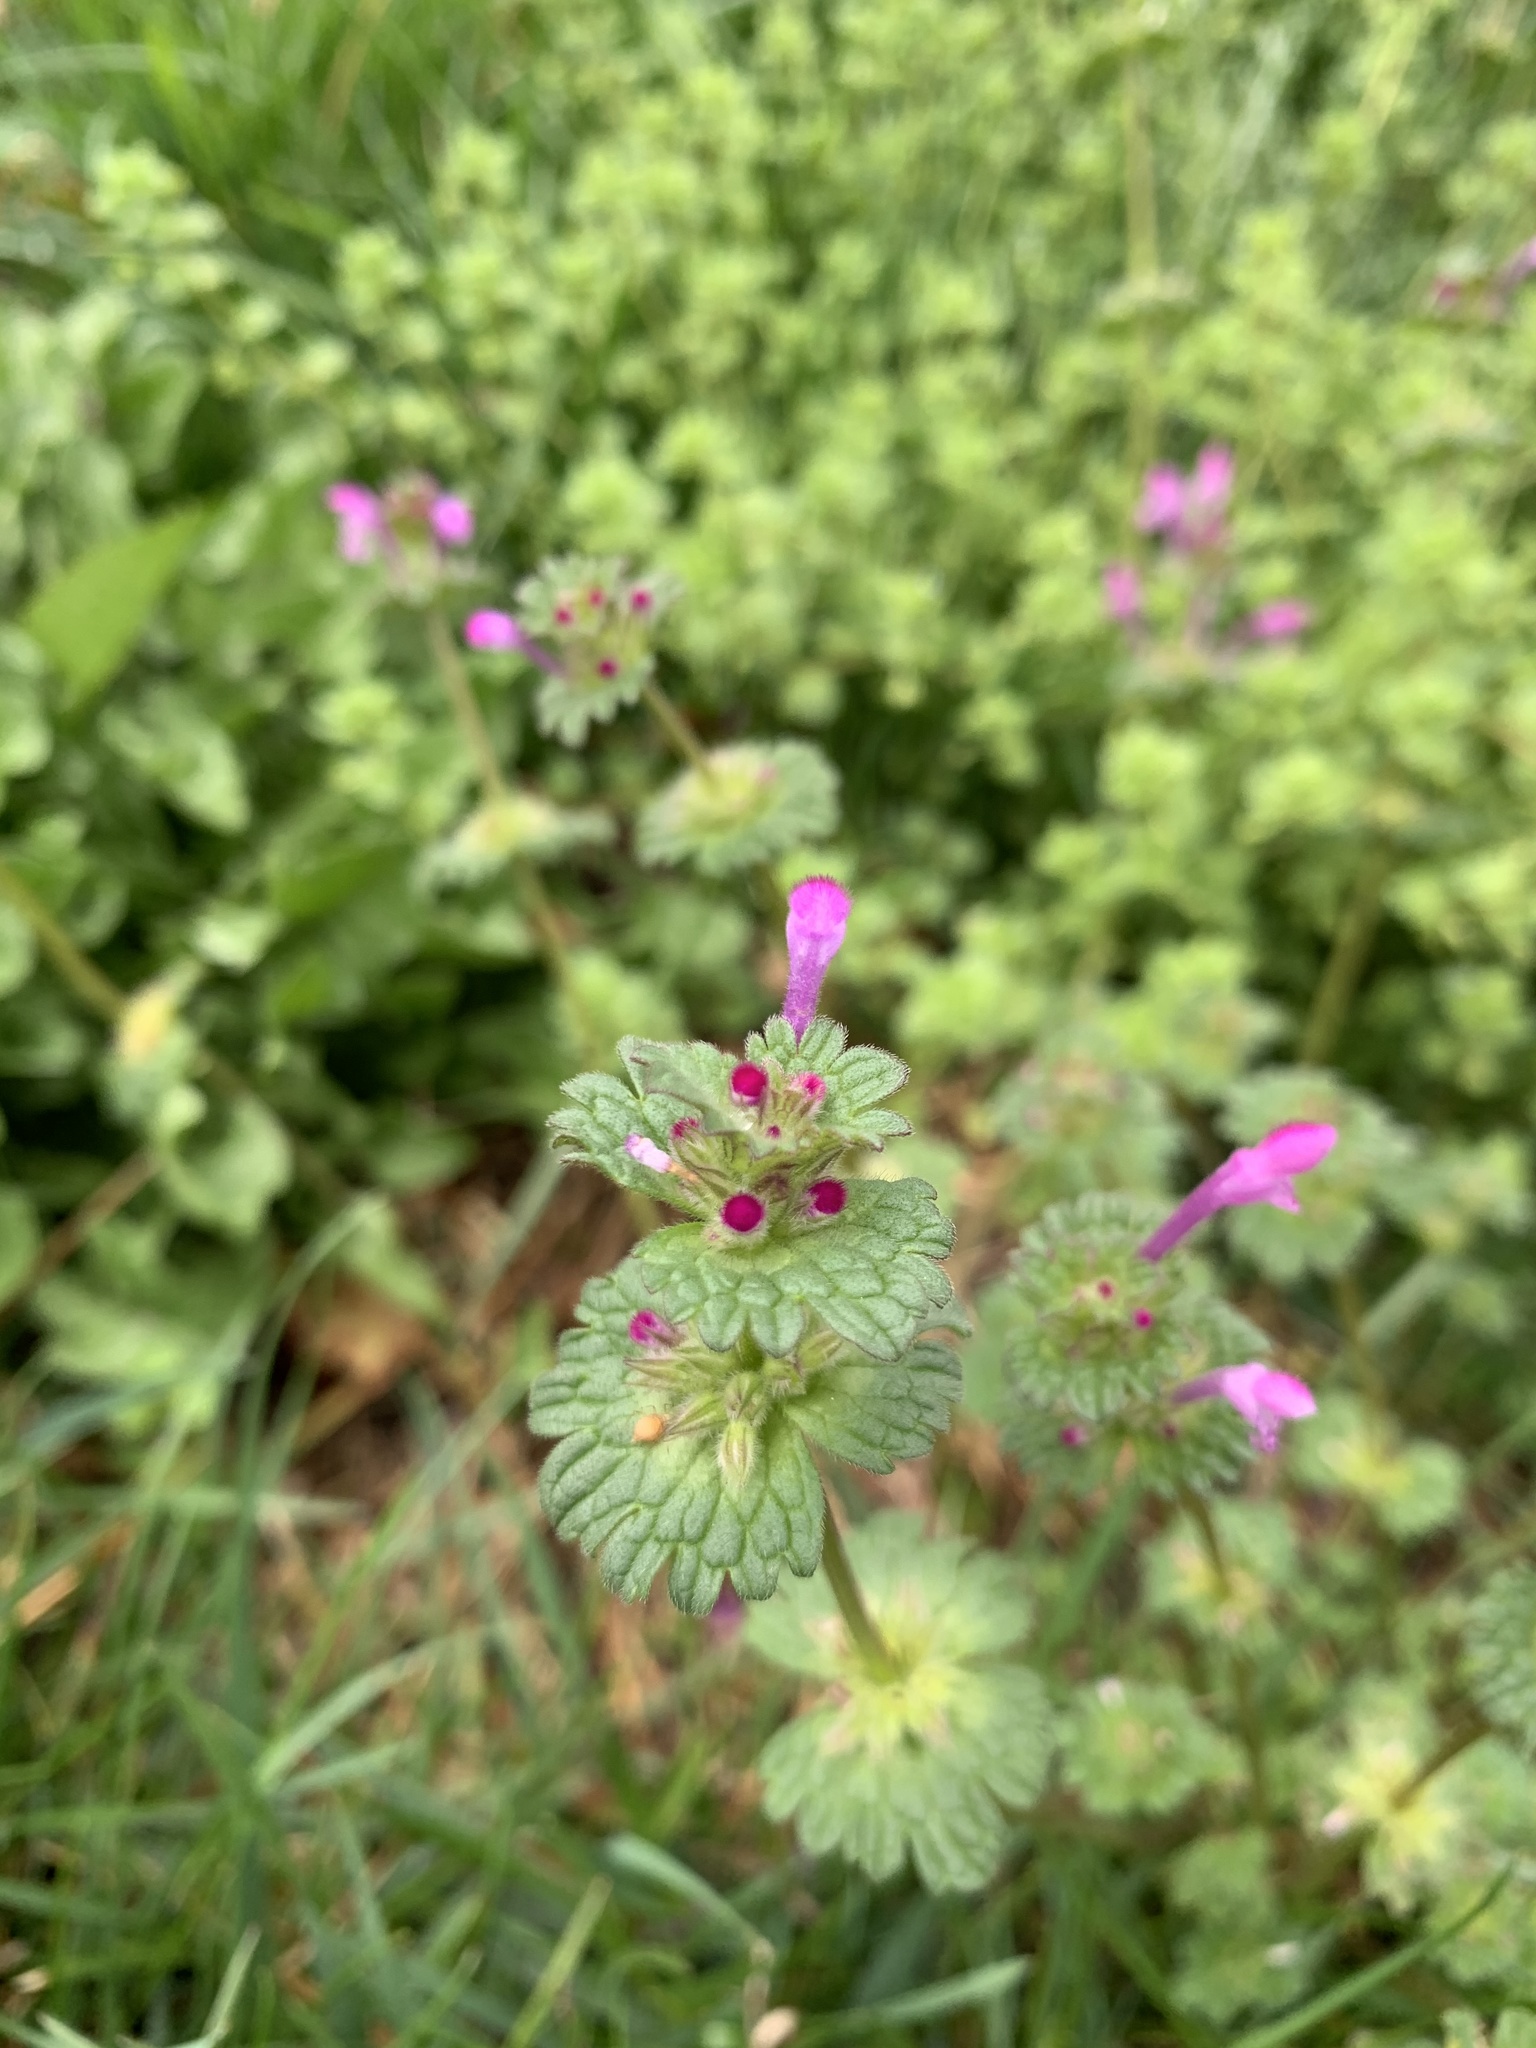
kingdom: Plantae
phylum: Tracheophyta
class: Magnoliopsida
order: Lamiales
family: Lamiaceae
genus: Lamium
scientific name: Lamium amplexicaule
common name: Henbit dead-nettle
